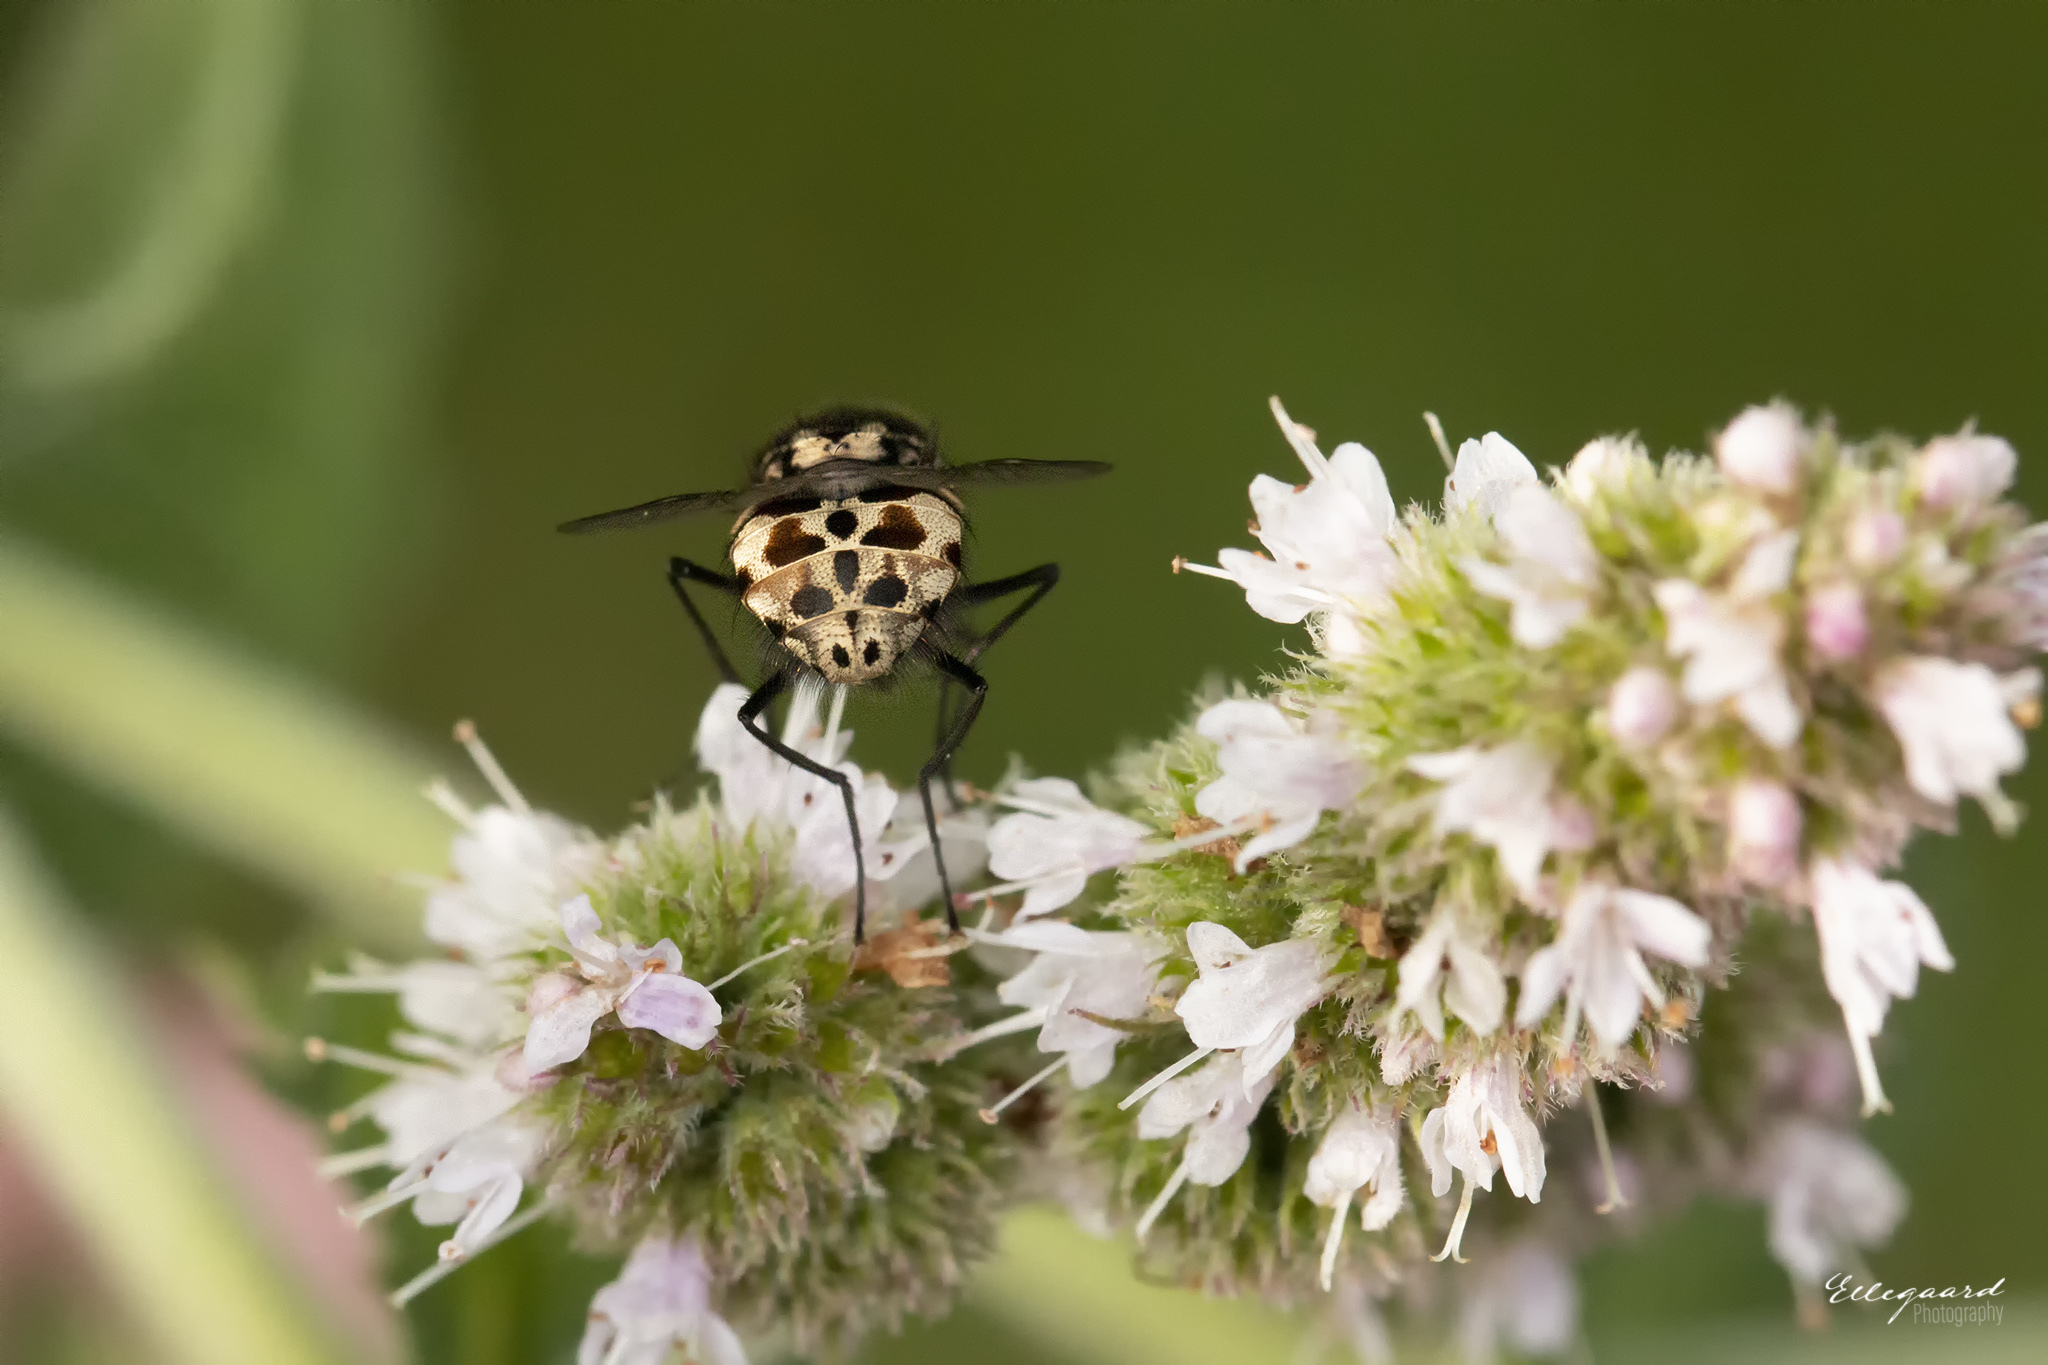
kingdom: Animalia
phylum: Arthropoda
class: Insecta
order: Diptera
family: Muscidae
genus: Graphomya
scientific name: Graphomya maculata
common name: Muscid fly
